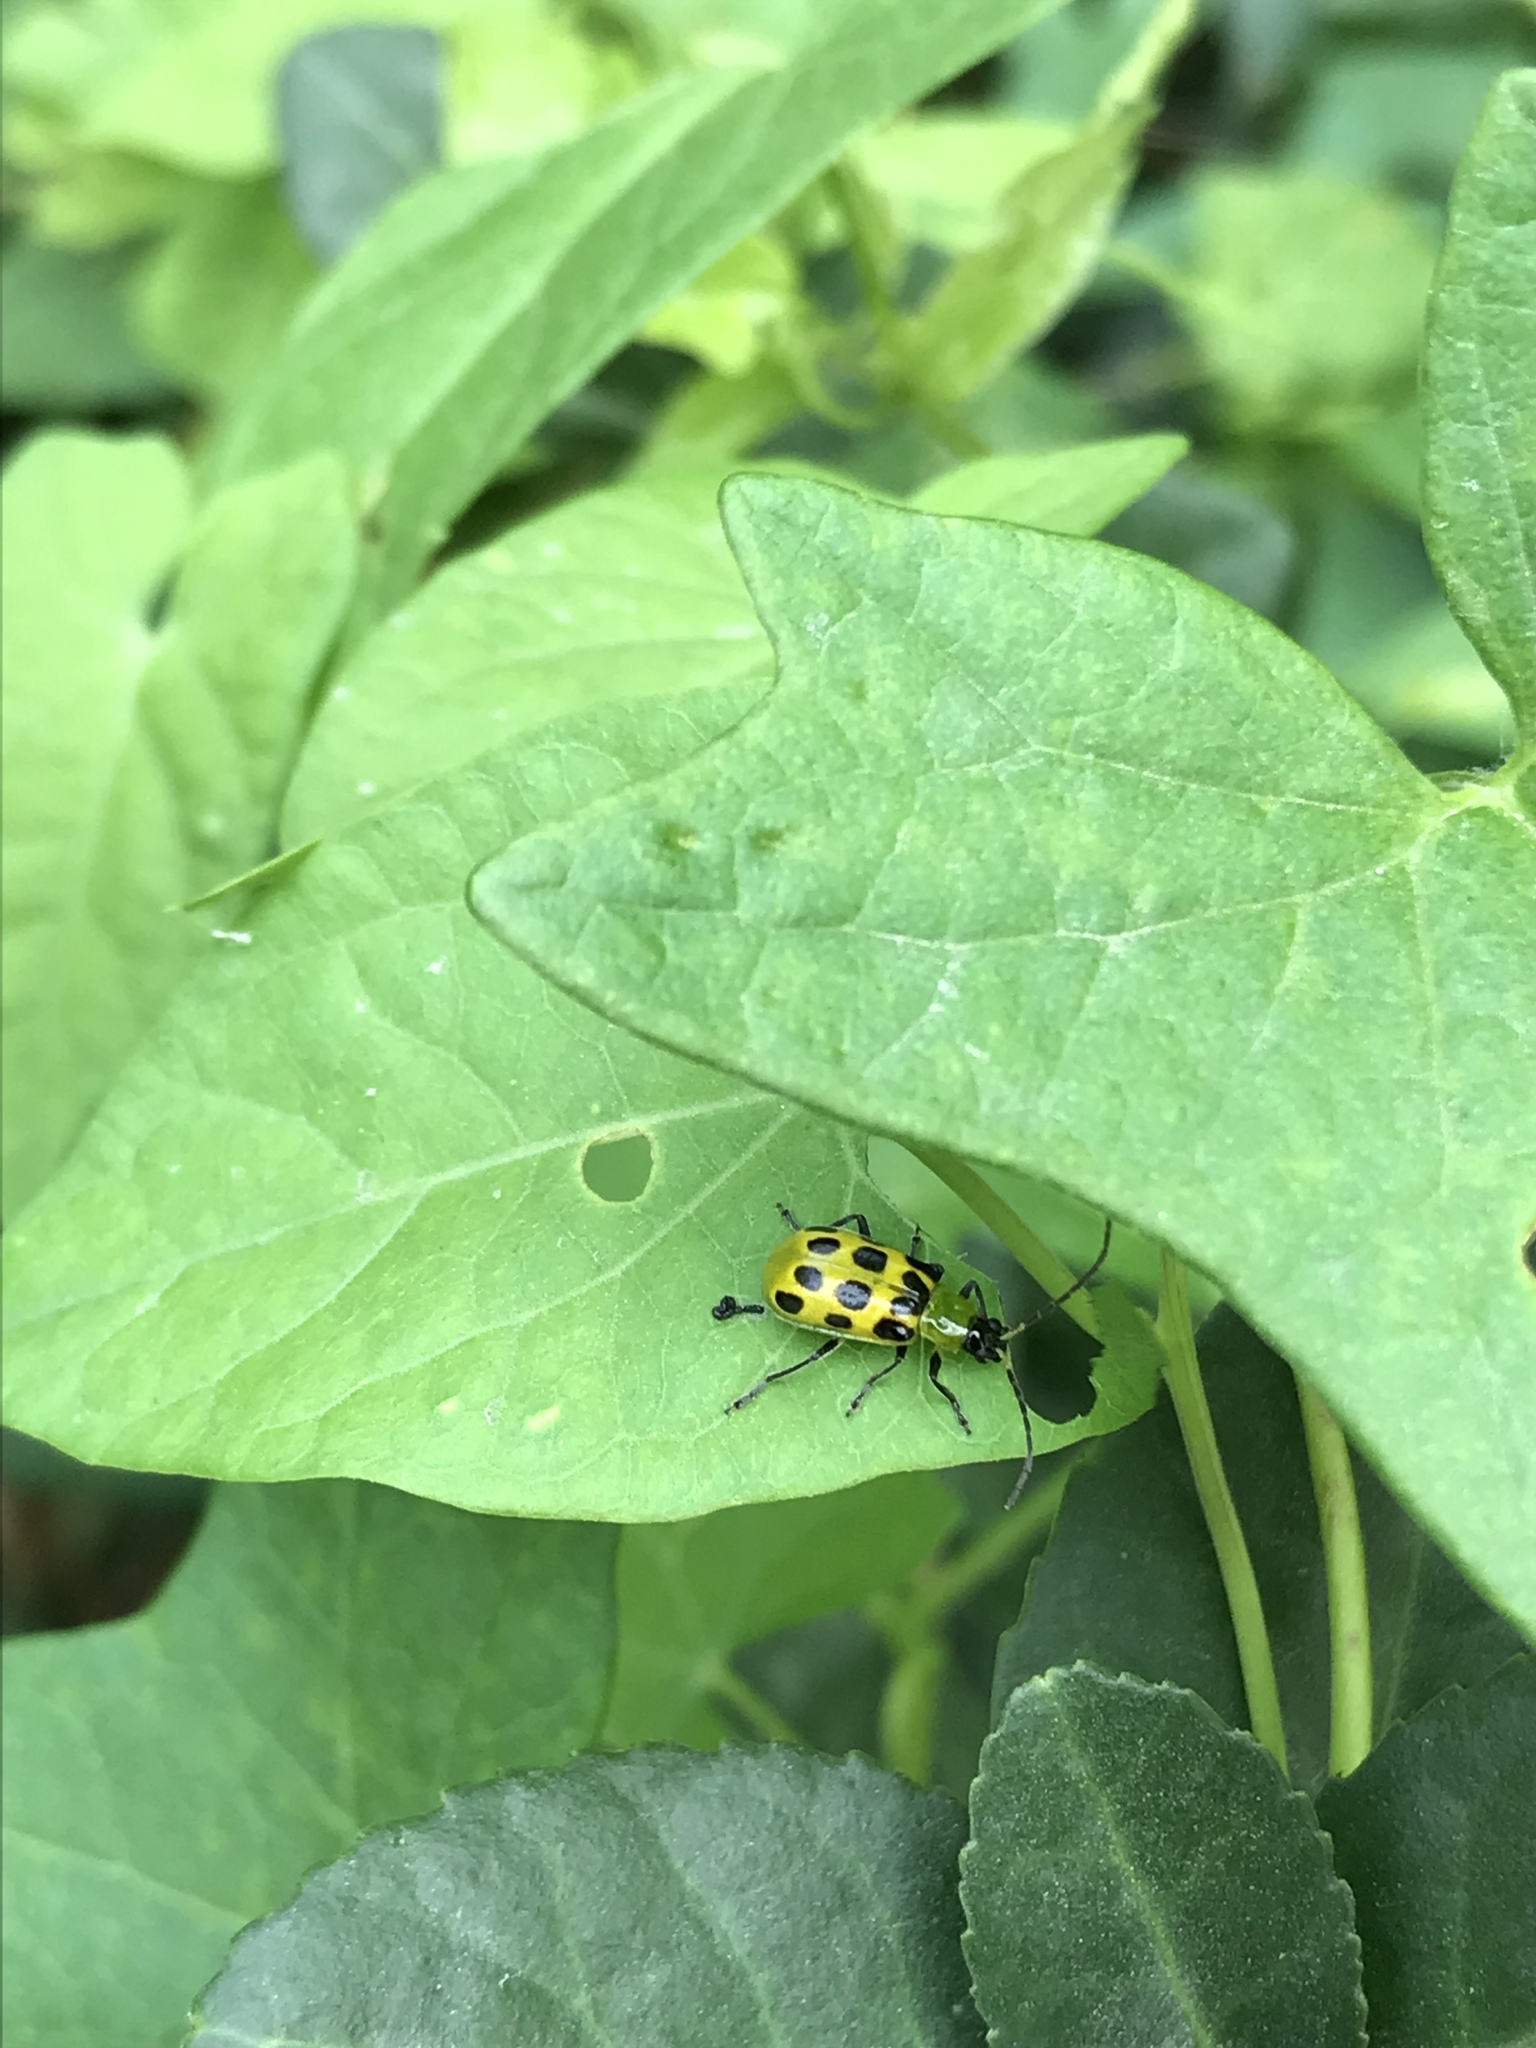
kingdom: Animalia
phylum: Arthropoda
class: Insecta
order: Coleoptera
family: Chrysomelidae
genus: Diabrotica
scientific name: Diabrotica undecimpunctata
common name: Spotted cucumber beetle
